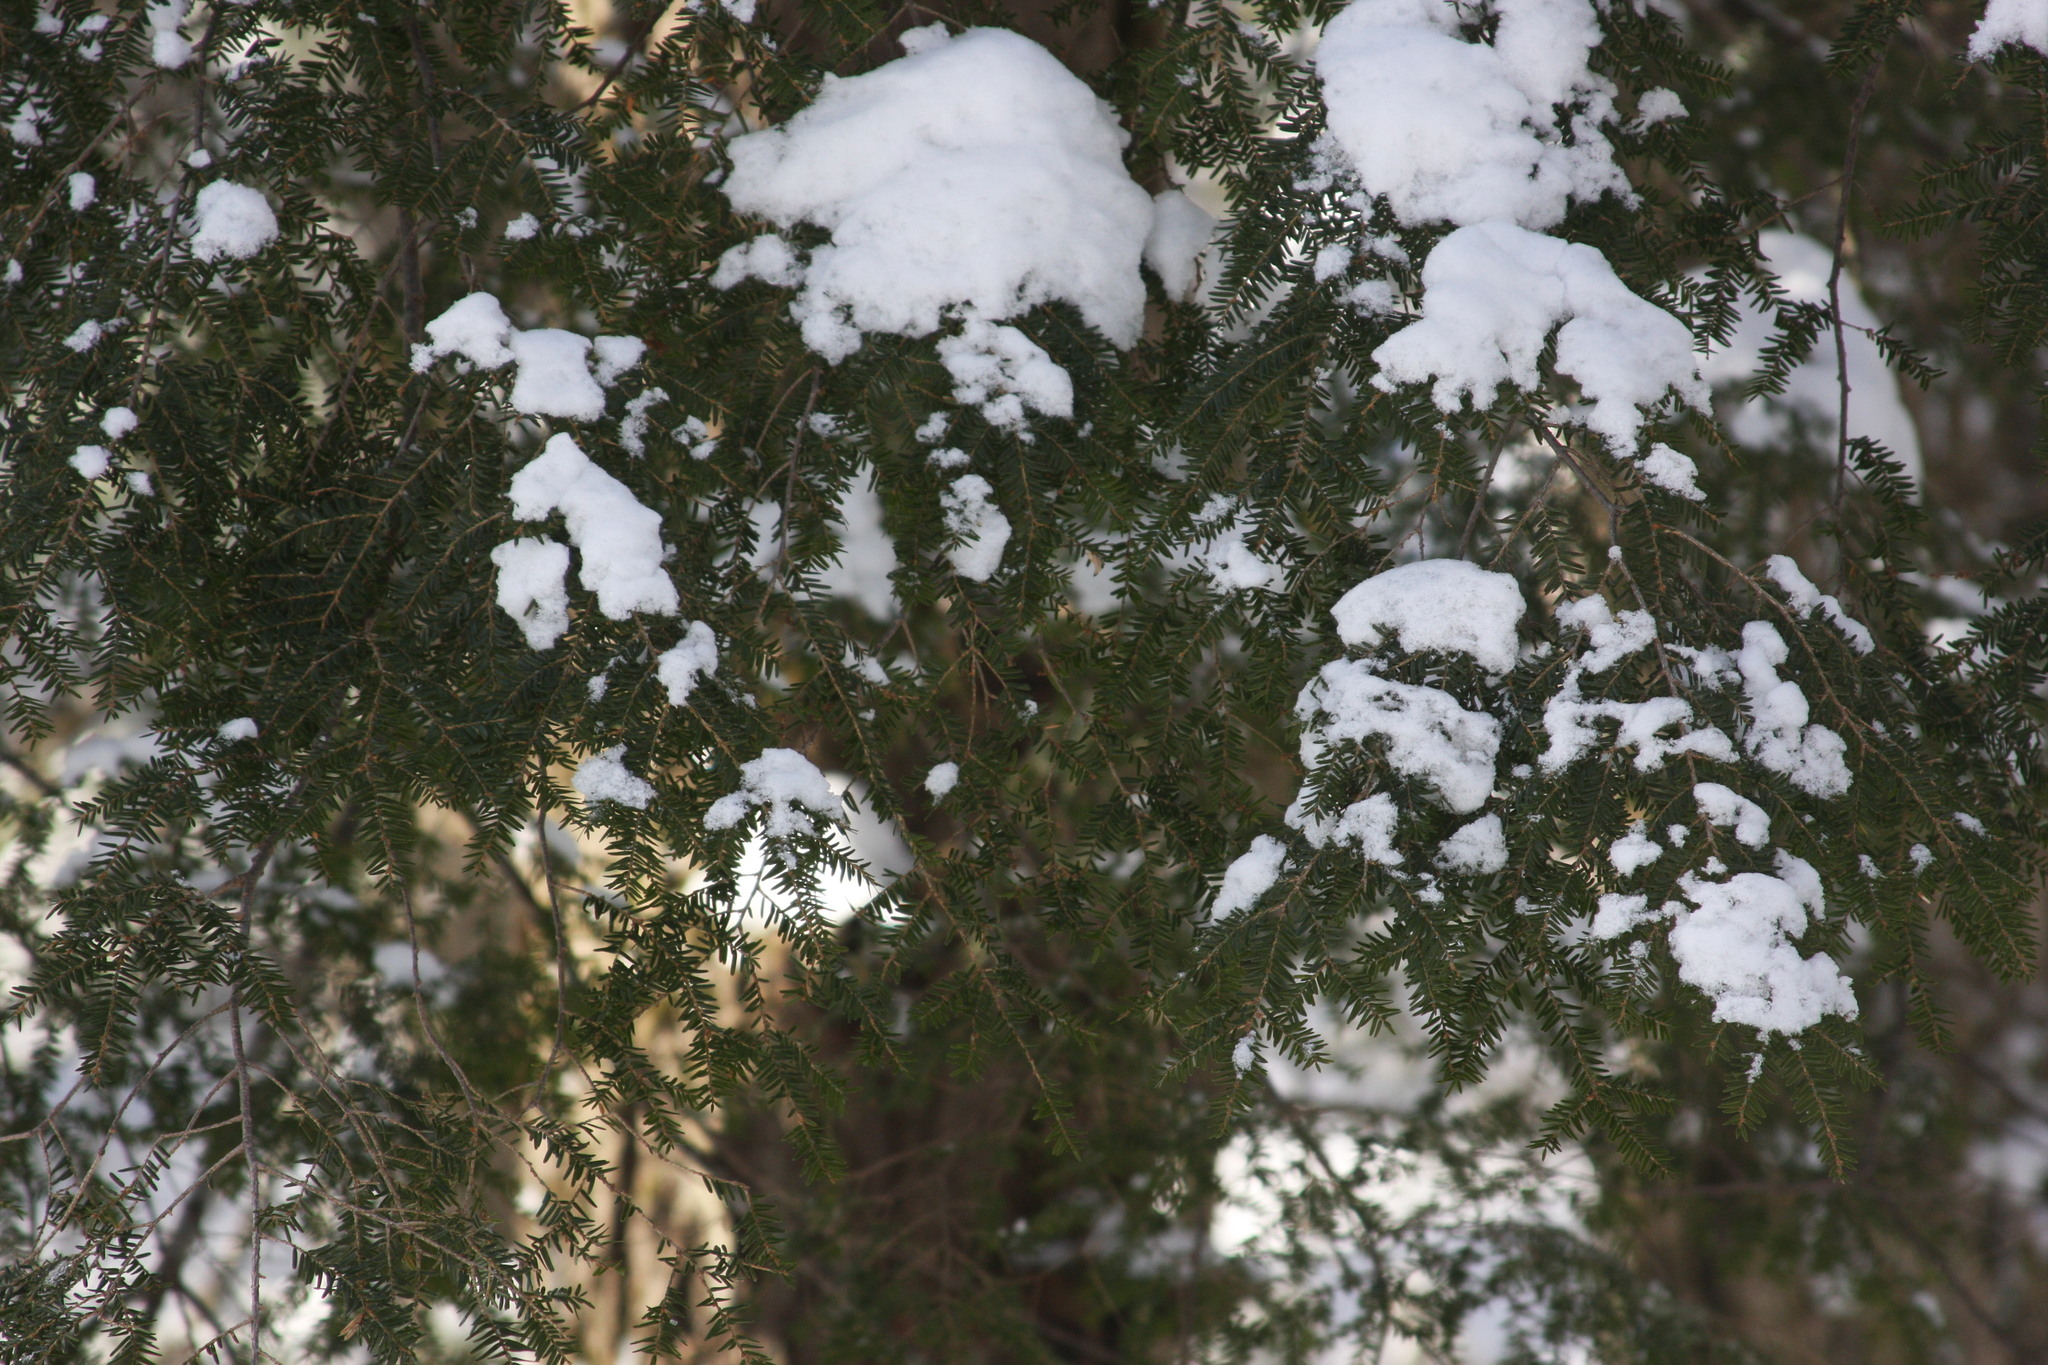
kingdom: Plantae
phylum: Tracheophyta
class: Pinopsida
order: Pinales
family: Pinaceae
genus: Tsuga
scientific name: Tsuga canadensis
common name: Eastern hemlock
